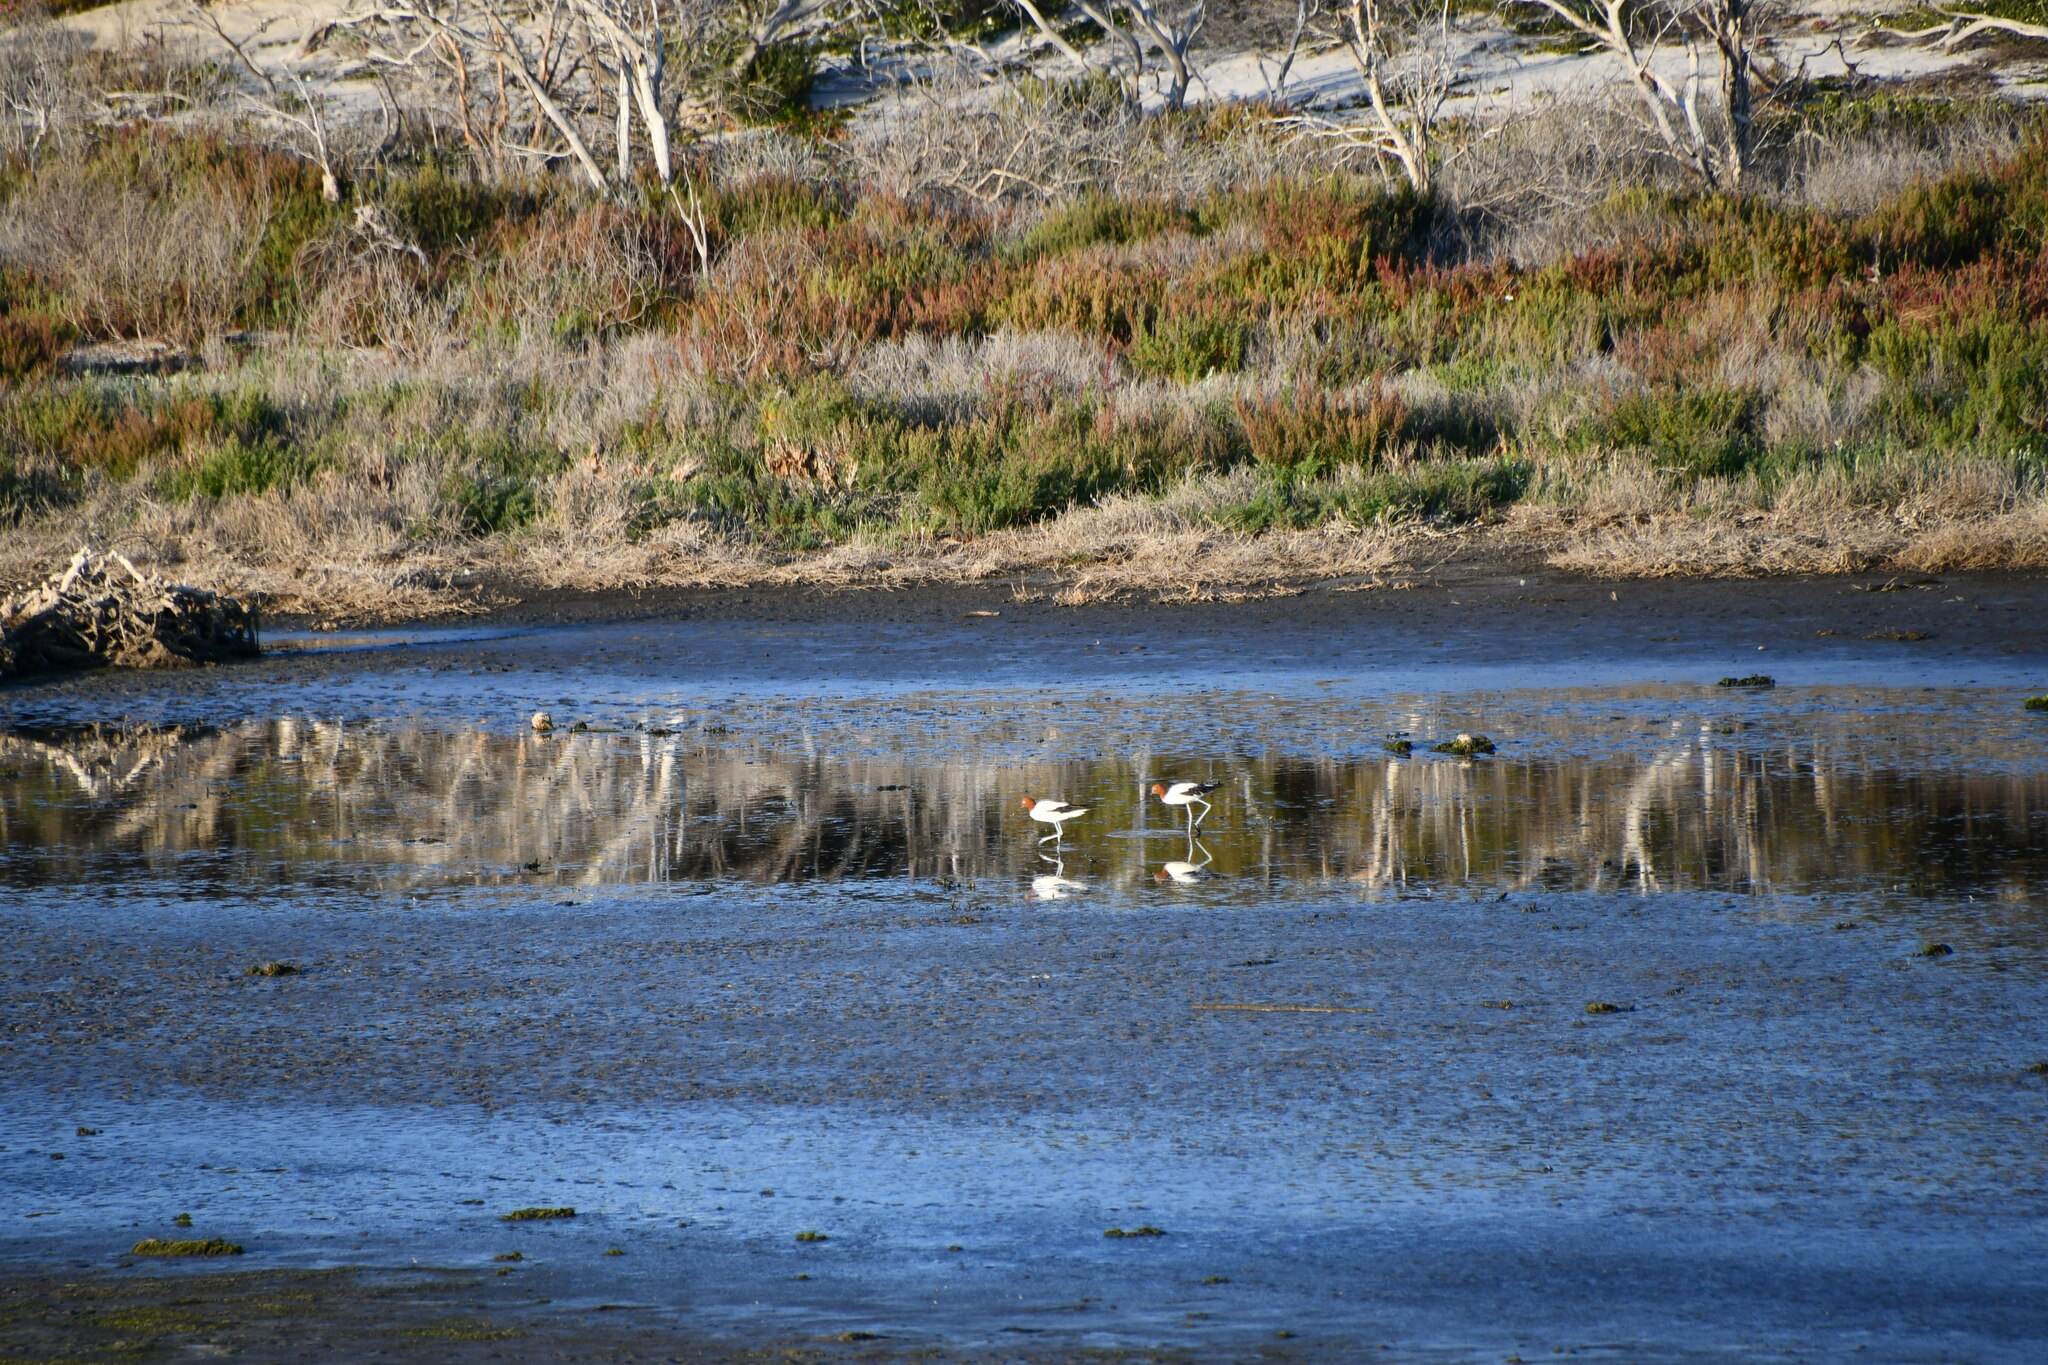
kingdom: Animalia
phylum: Chordata
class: Aves
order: Charadriiformes
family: Recurvirostridae
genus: Recurvirostra
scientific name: Recurvirostra novaehollandiae
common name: Red-necked avocet
